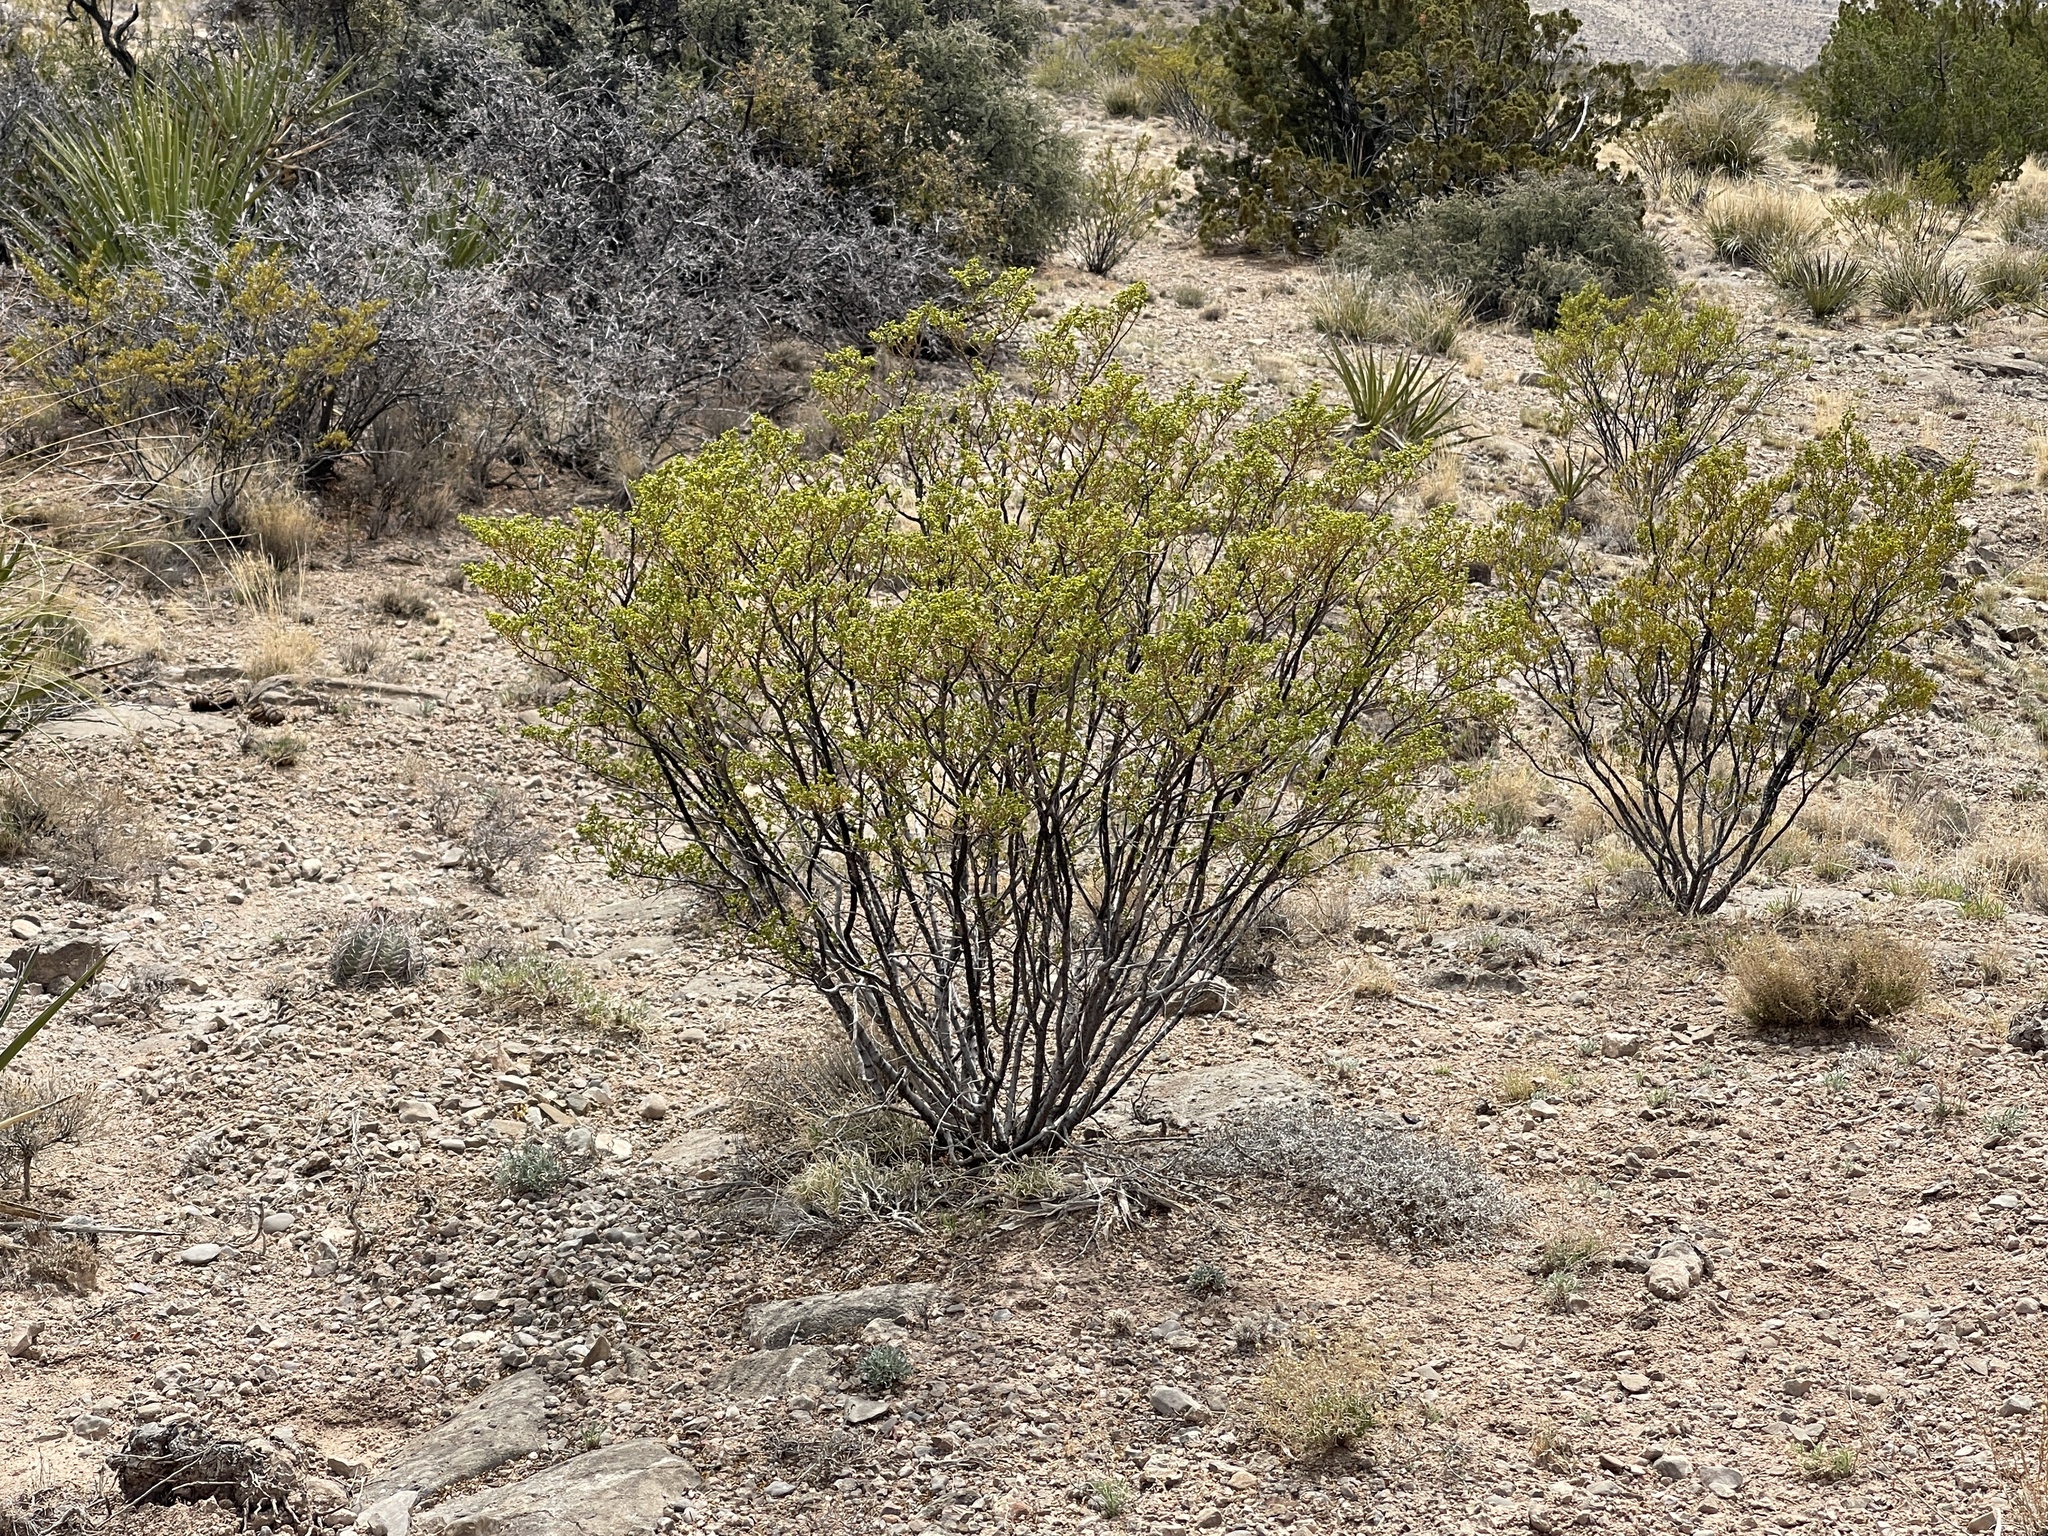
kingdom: Plantae
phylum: Tracheophyta
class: Magnoliopsida
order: Zygophyllales
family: Zygophyllaceae
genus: Larrea
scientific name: Larrea tridentata
